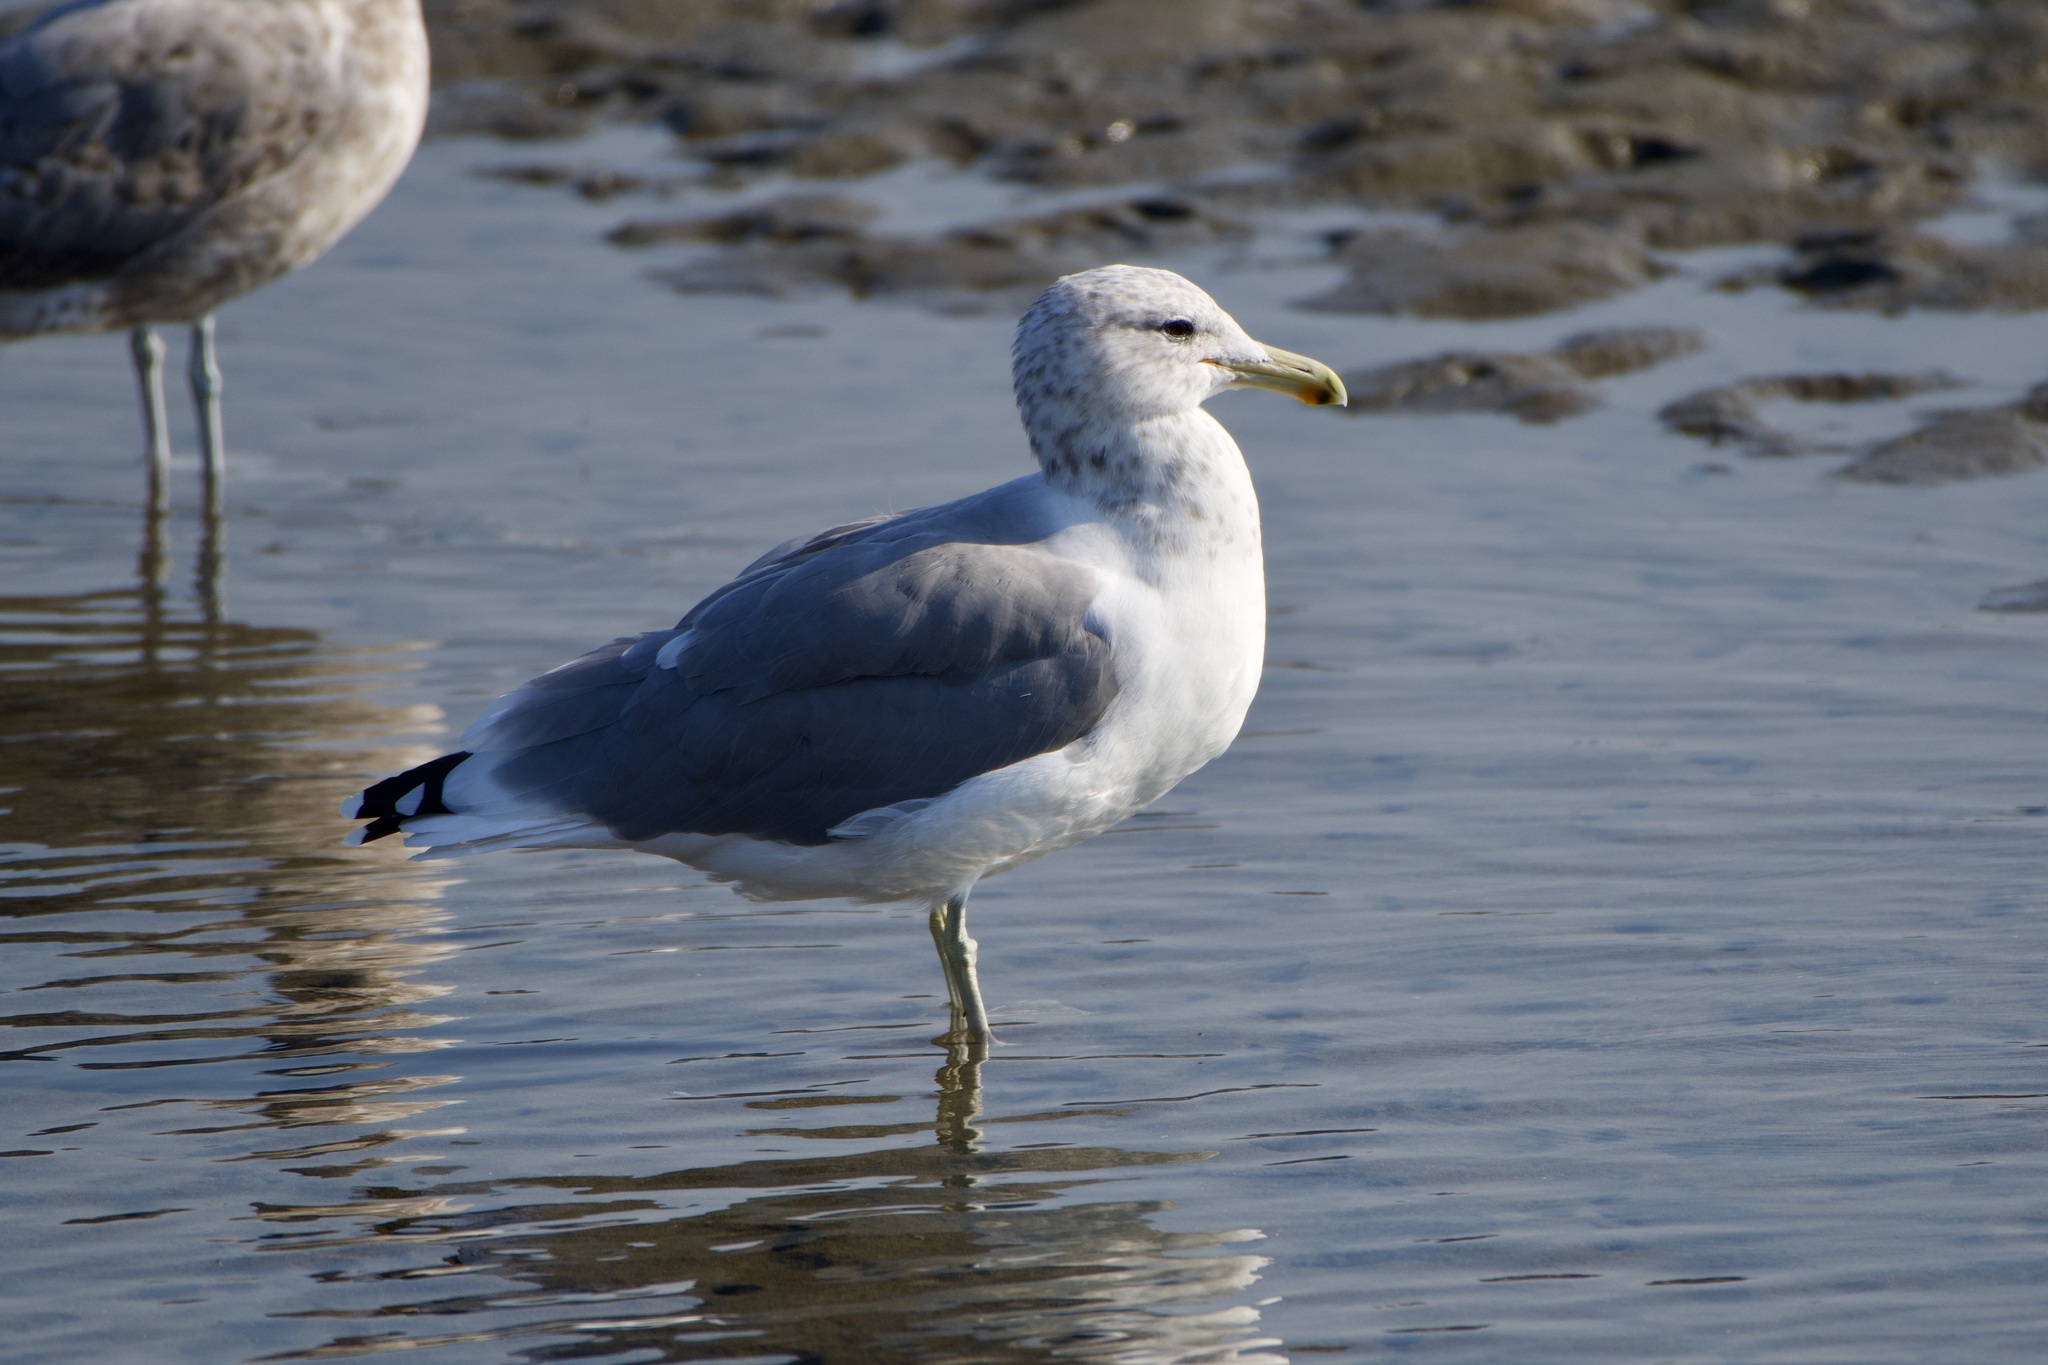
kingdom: Animalia
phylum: Chordata
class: Aves
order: Charadriiformes
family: Laridae
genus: Larus
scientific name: Larus californicus
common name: California gull
